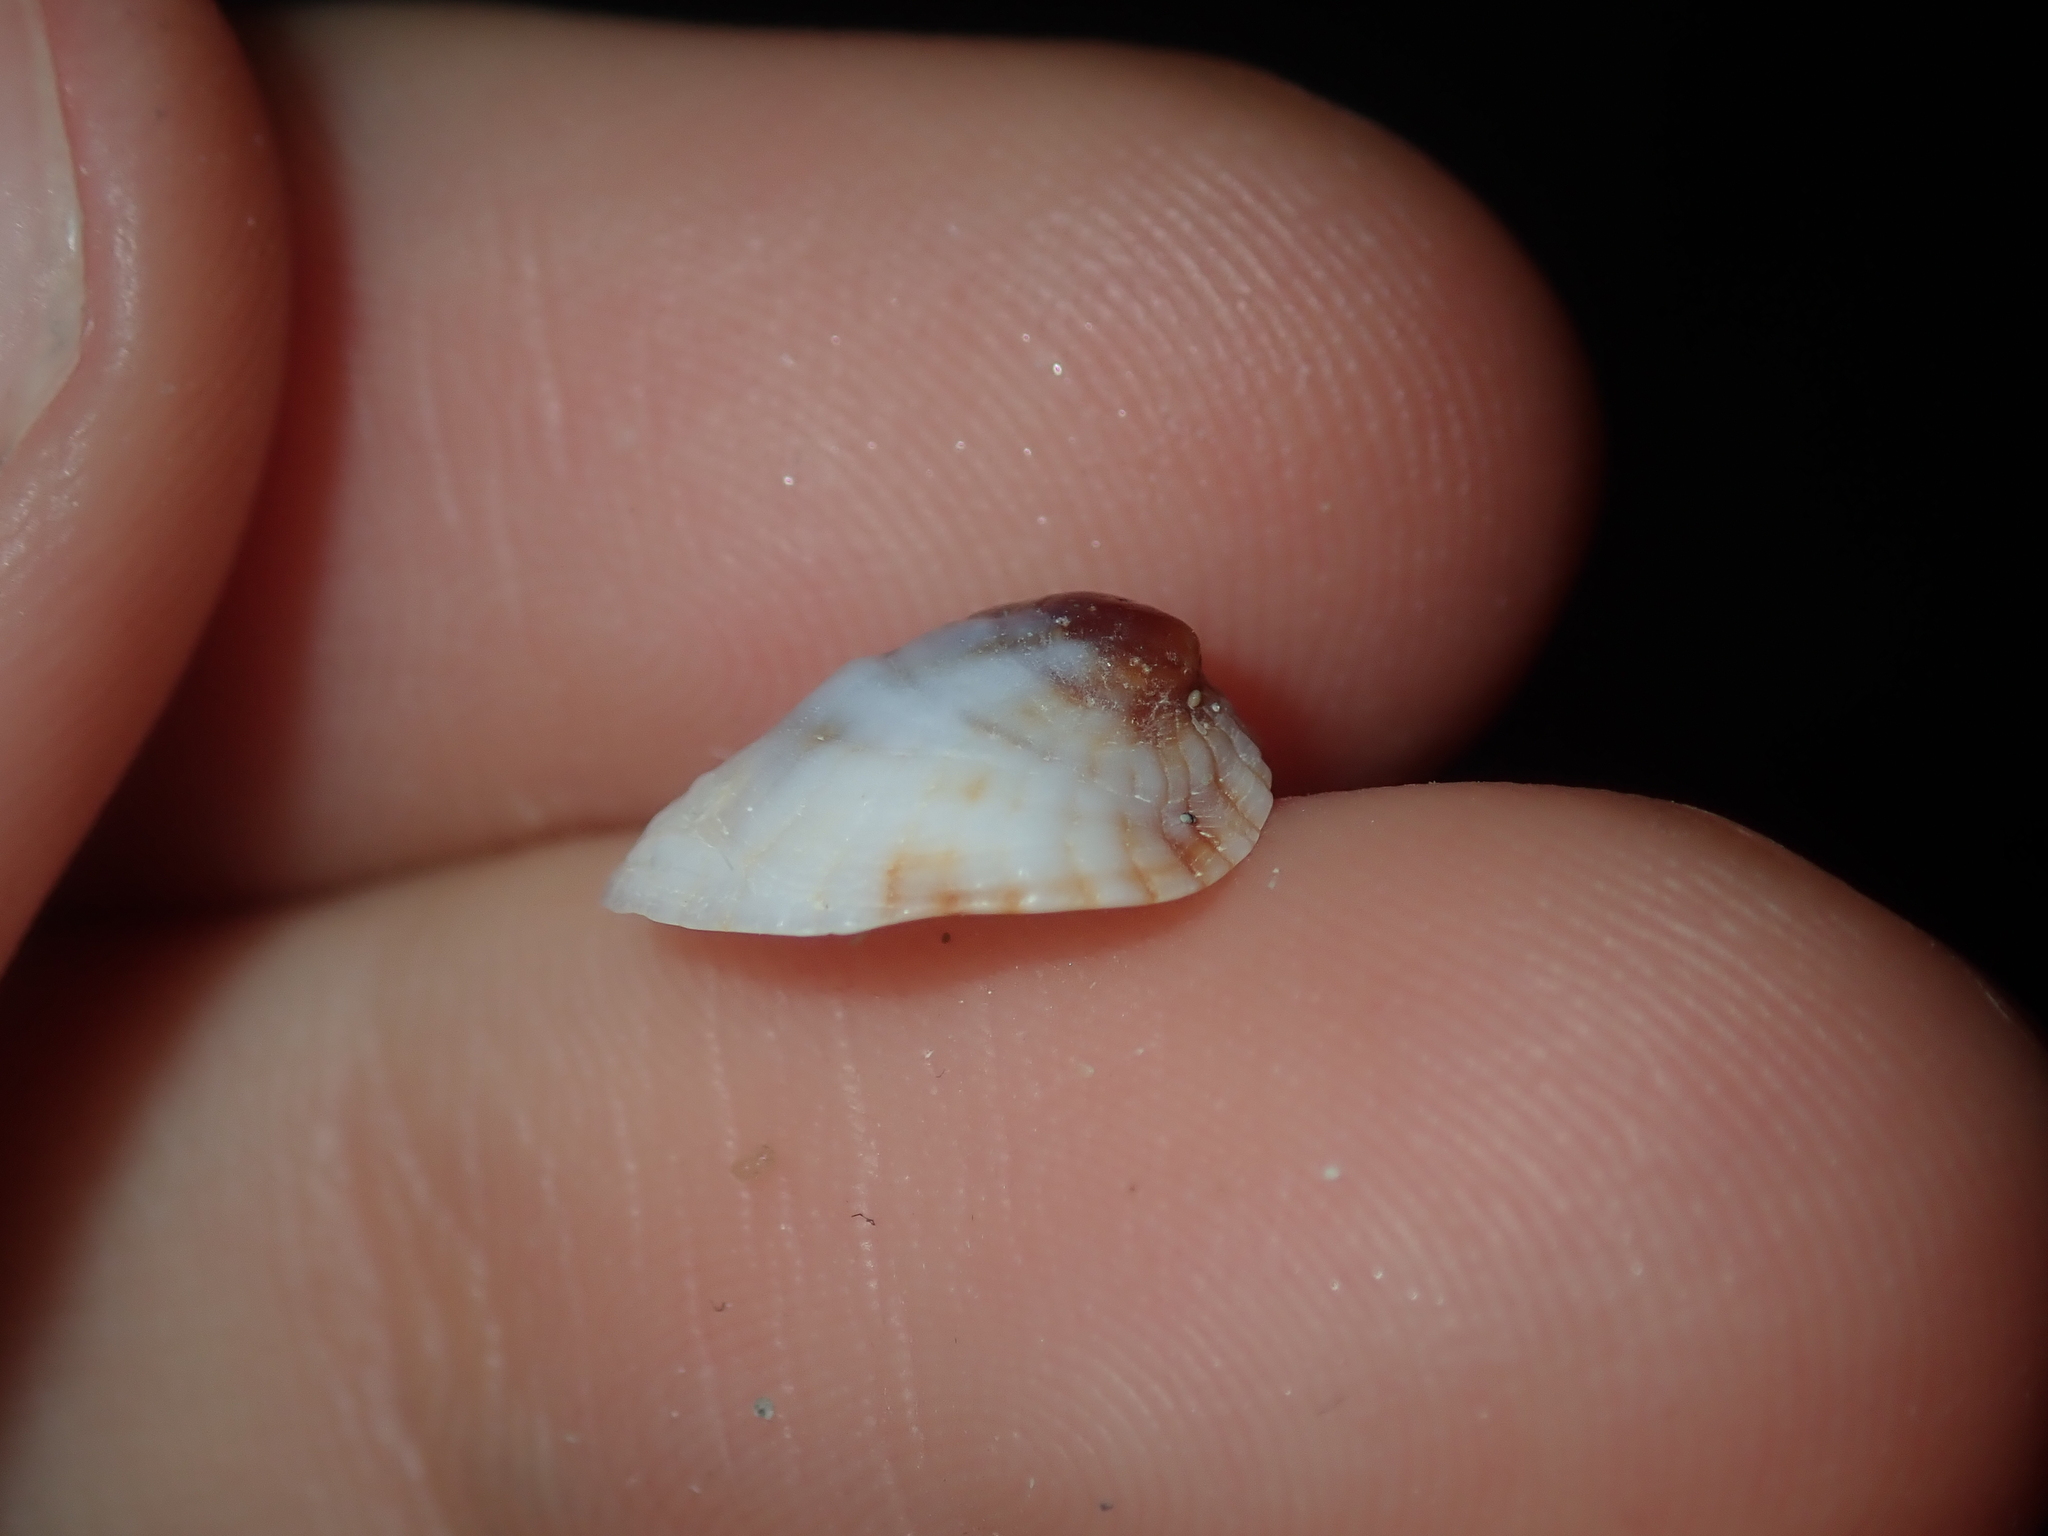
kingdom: Animalia
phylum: Mollusca
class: Gastropoda
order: Littorinimorpha
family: Hipponicidae
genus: Sabia
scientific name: Sabia australis
